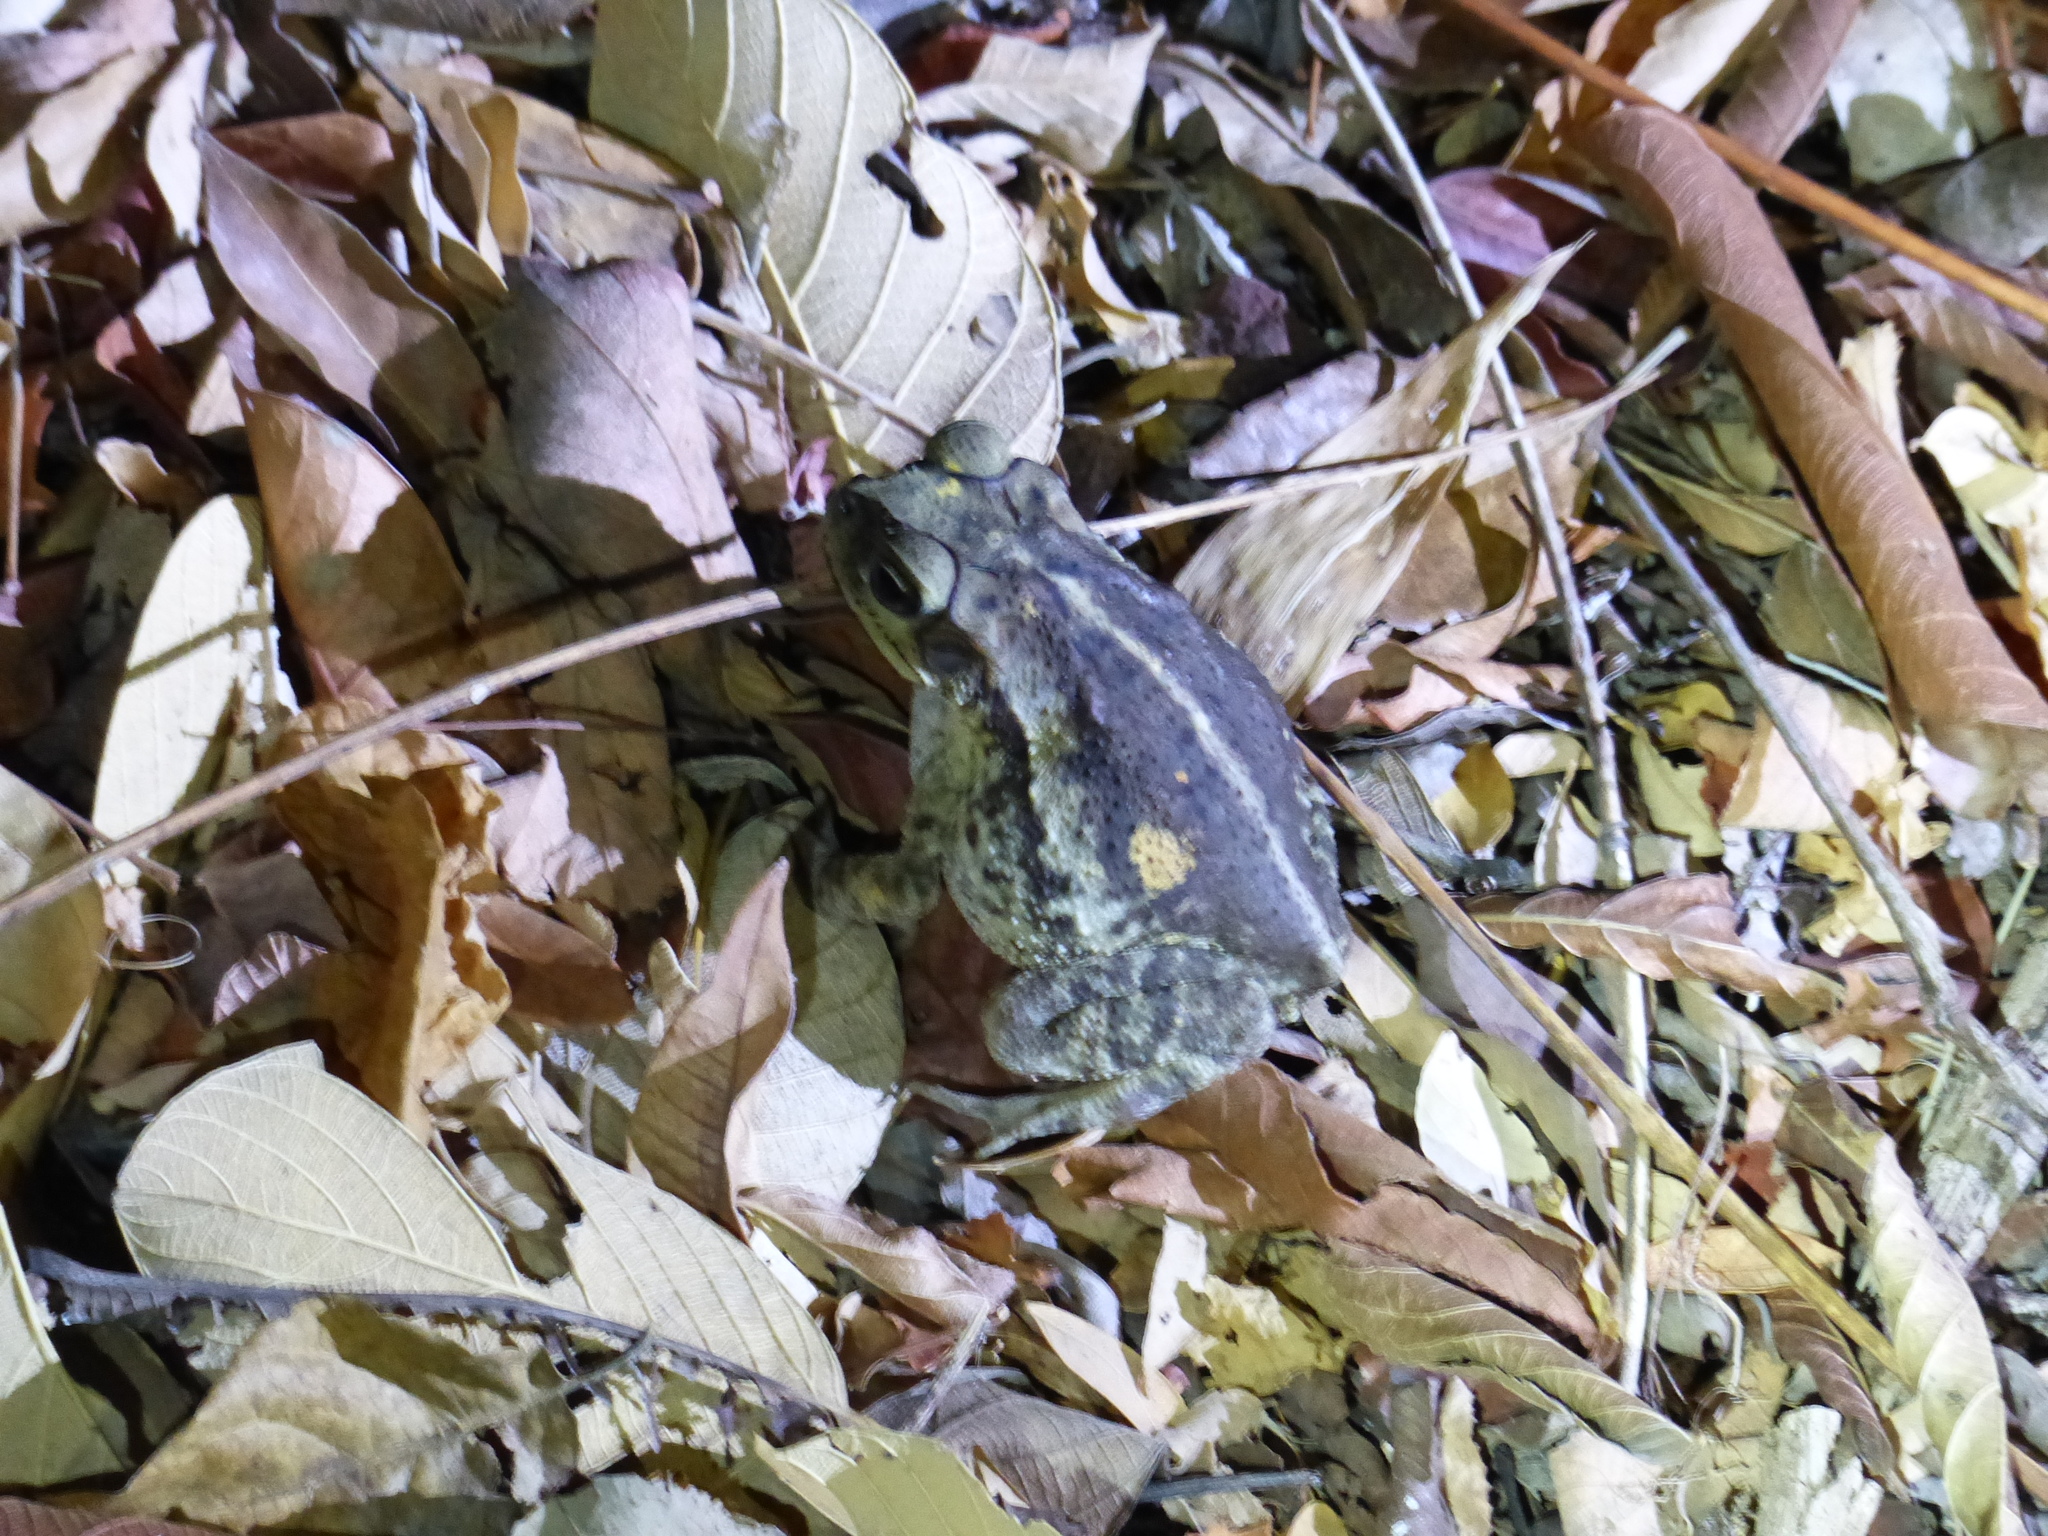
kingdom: Animalia
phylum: Chordata
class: Amphibia
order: Anura
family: Bufonidae
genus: Incilius
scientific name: Incilius luetkenii
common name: Yellow toad
